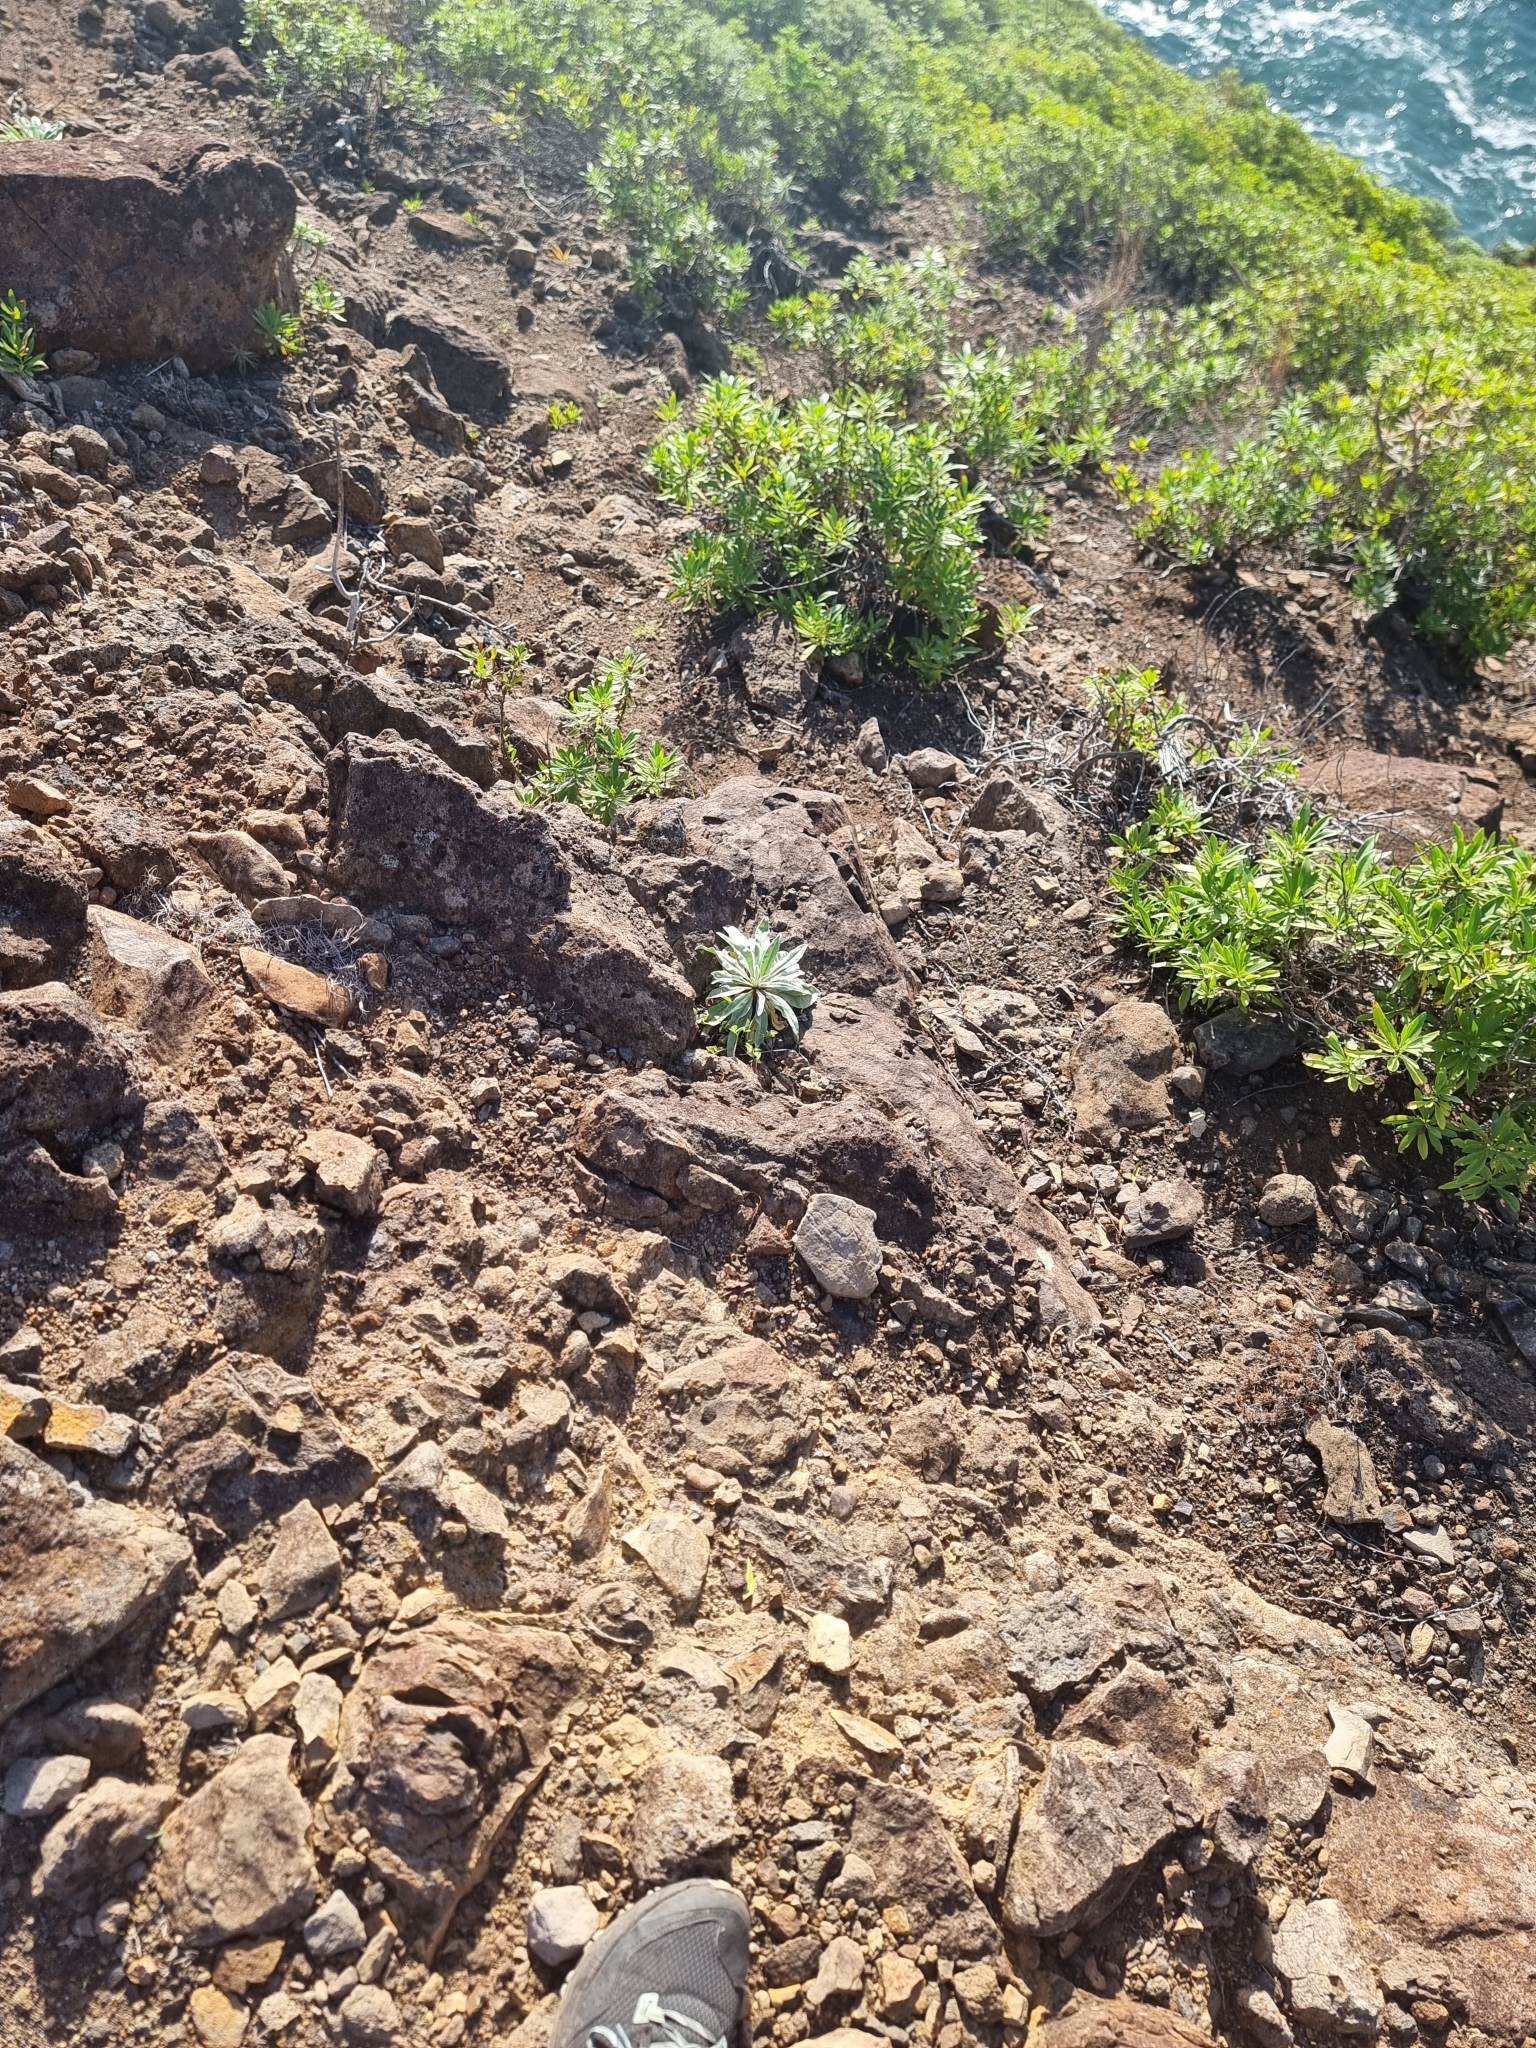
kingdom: Plantae
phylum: Tracheophyta
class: Magnoliopsida
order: Brassicales
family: Brassicaceae
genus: Matthiola
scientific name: Matthiola maderensis
